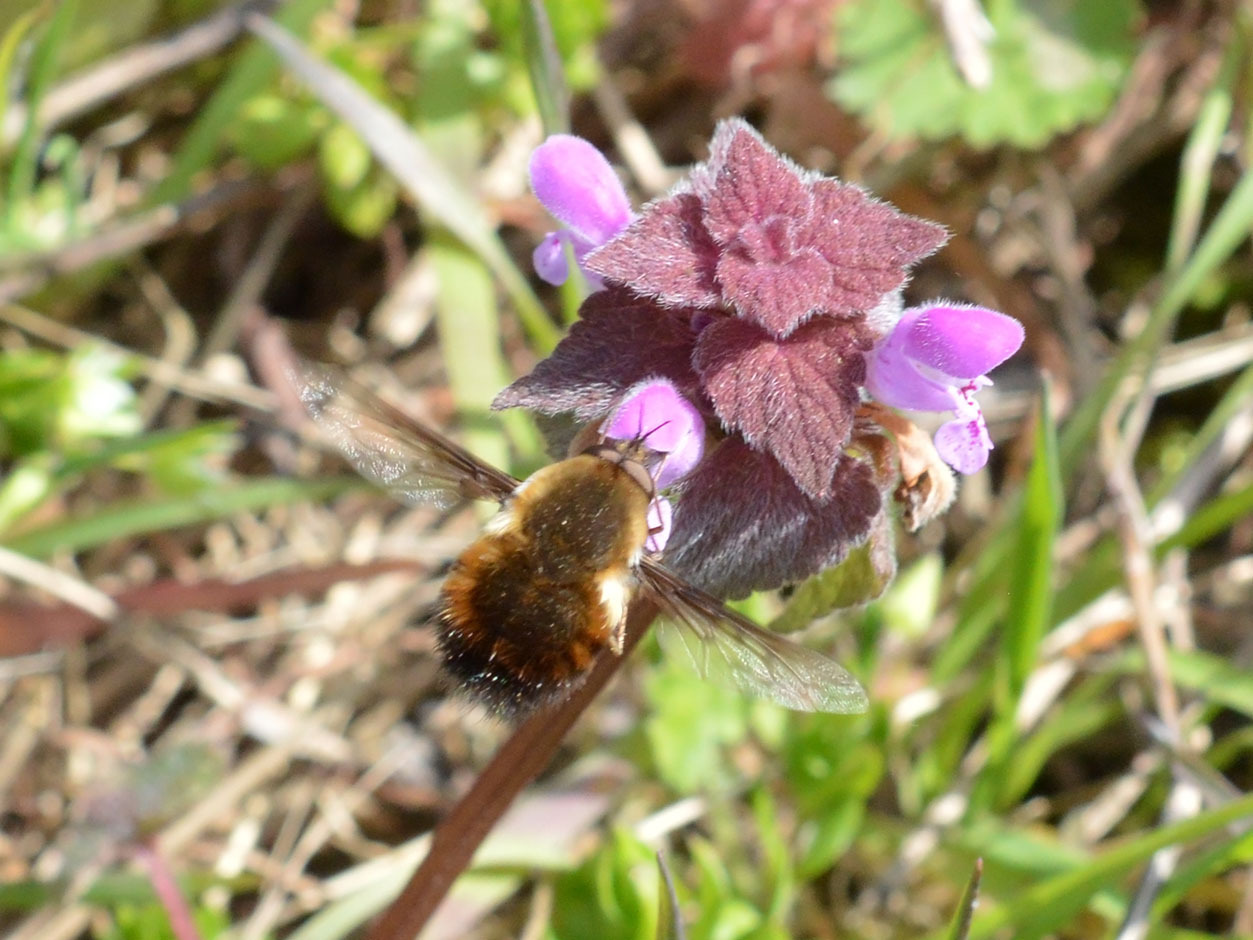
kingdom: Animalia
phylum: Arthropoda
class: Insecta
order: Diptera
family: Bombyliidae
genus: Bombylius
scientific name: Bombylius discolor
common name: Dotted bee-fly
